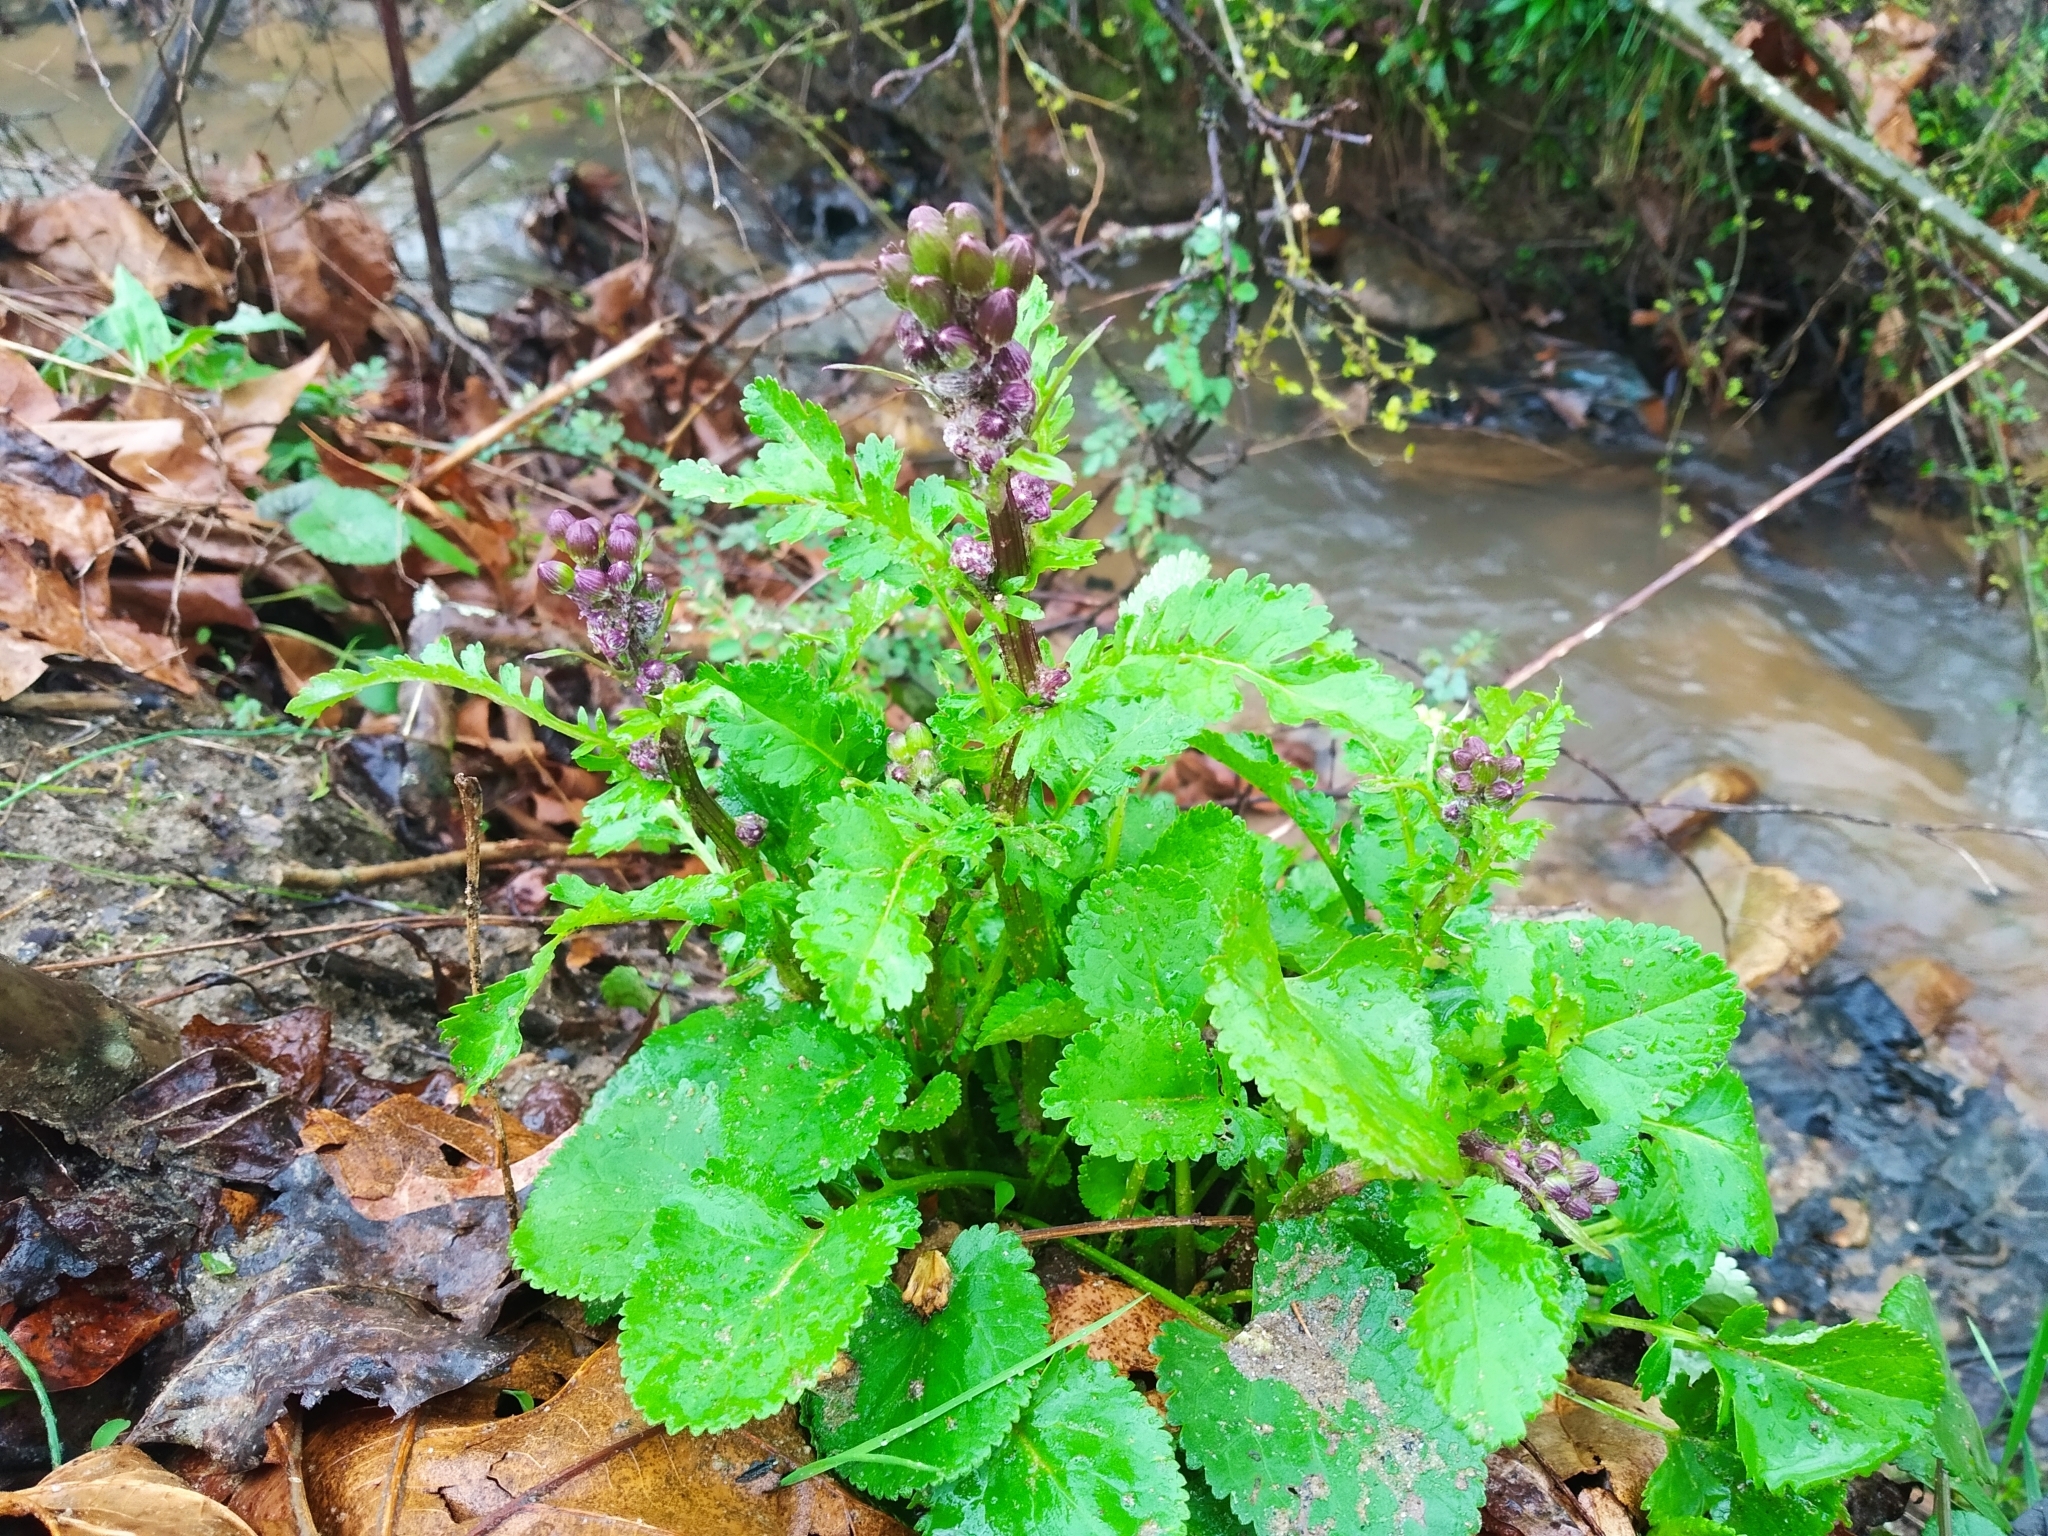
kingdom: Plantae
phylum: Tracheophyta
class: Magnoliopsida
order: Asterales
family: Asteraceae
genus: Packera
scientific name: Packera aurea
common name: Golden groundsel
